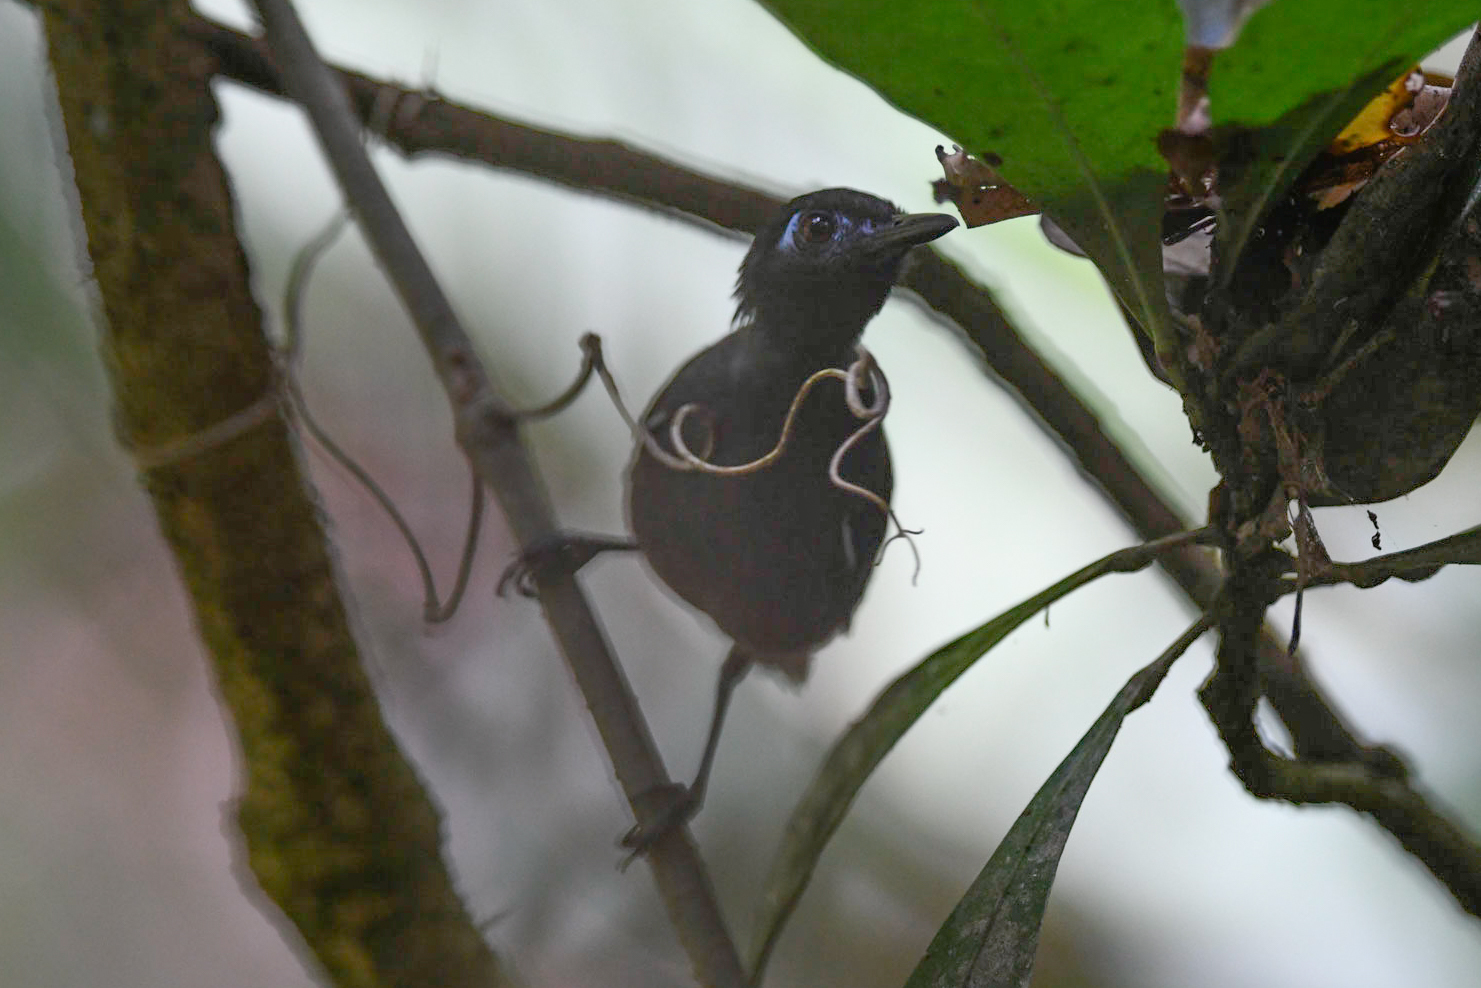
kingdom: Animalia
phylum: Chordata
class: Aves
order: Passeriformes
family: Thamnophilidae
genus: Myrmeciza
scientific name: Myrmeciza exsul
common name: Chestnut-backed antbird
